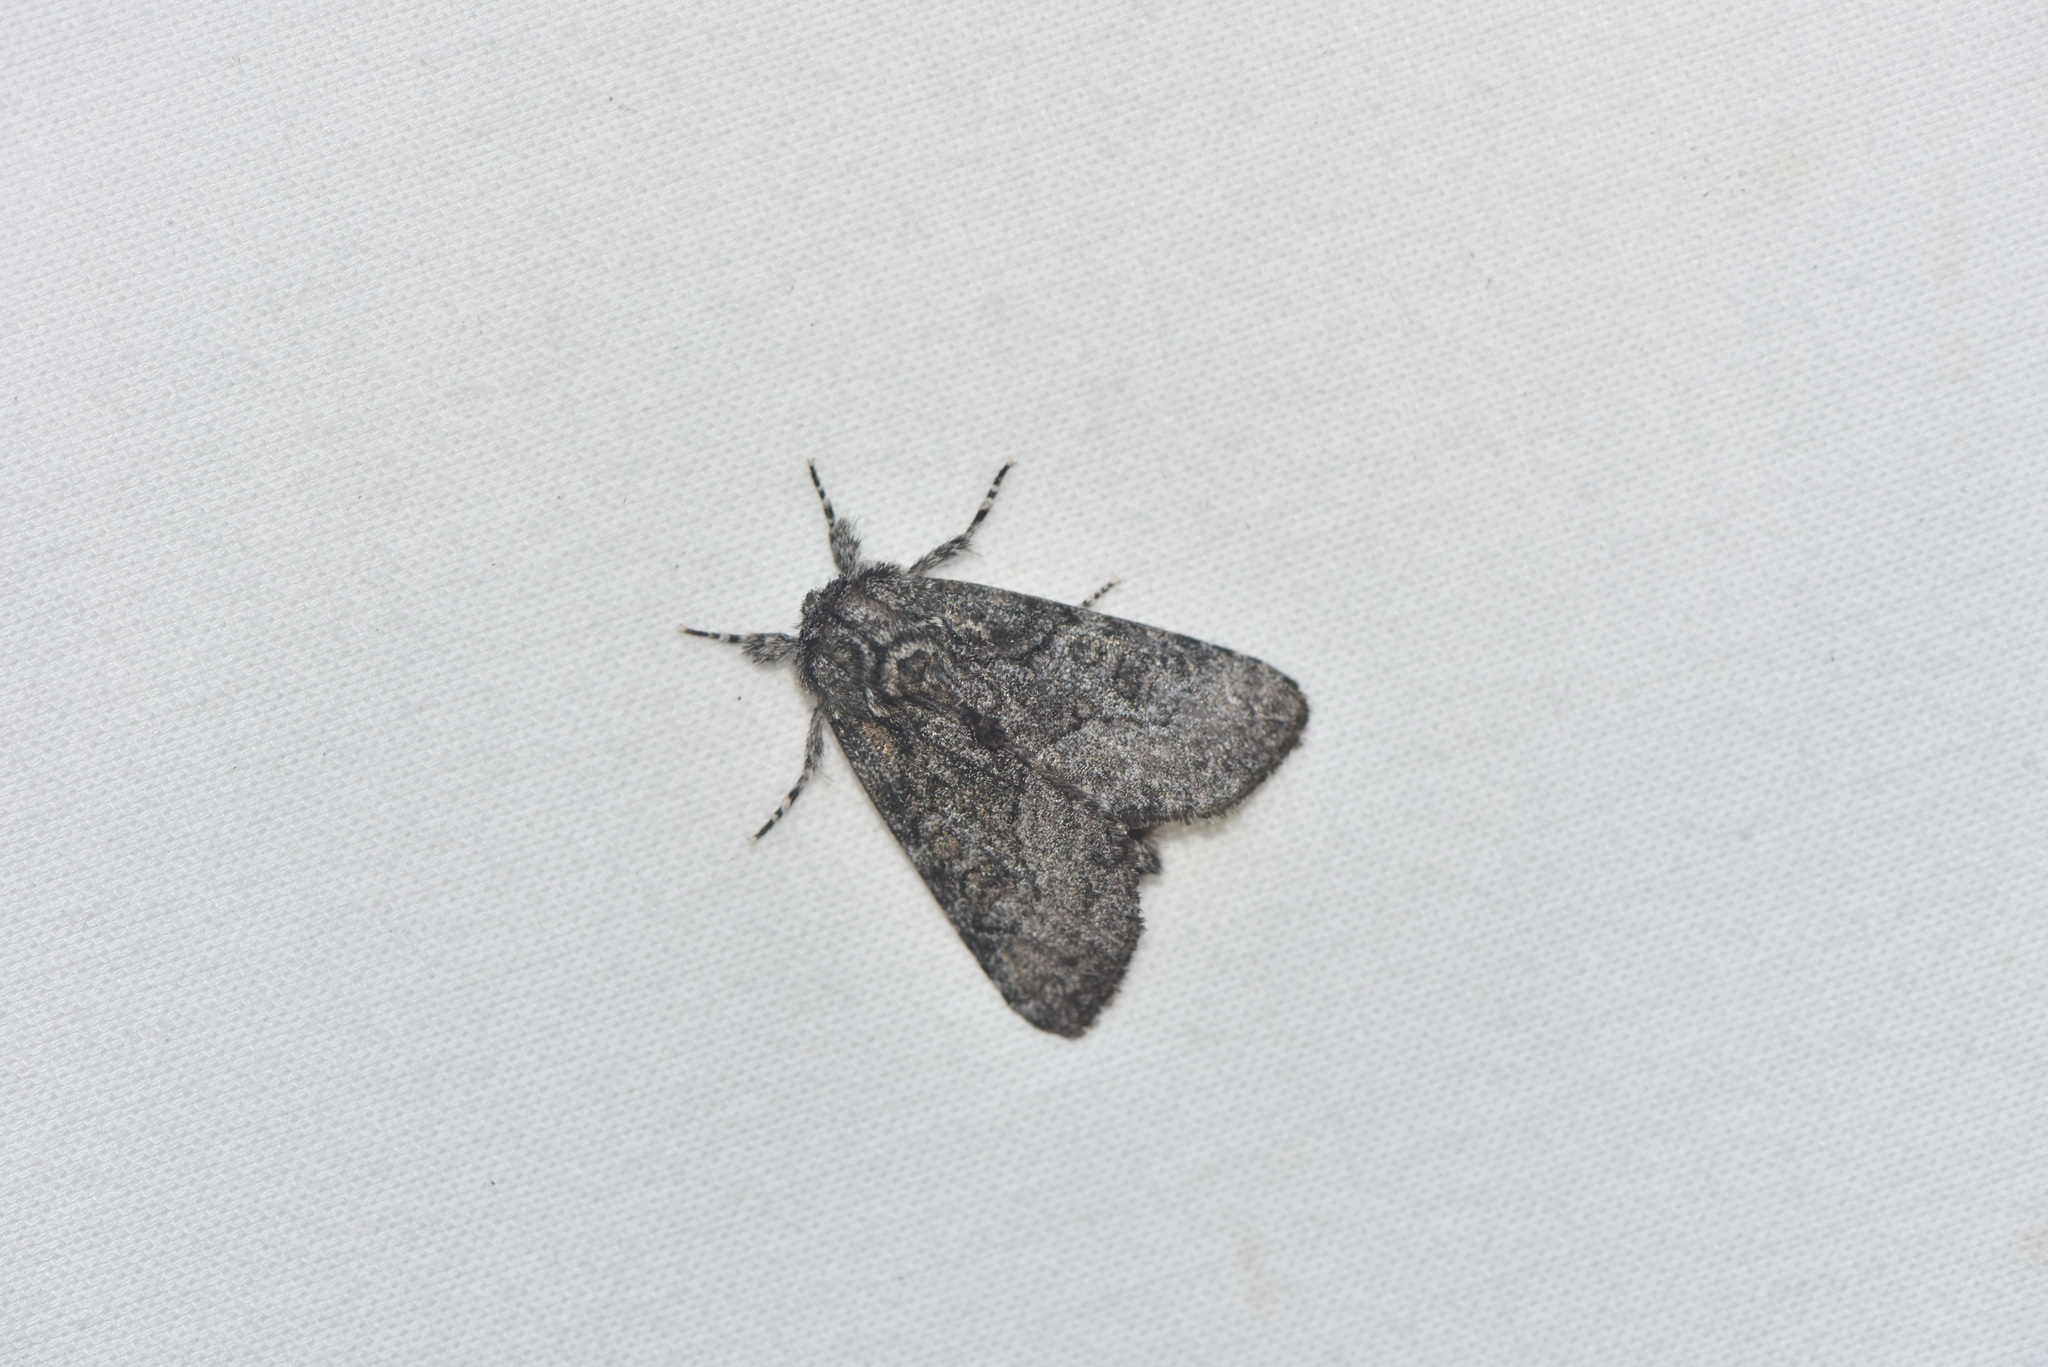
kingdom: Animalia
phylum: Arthropoda
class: Insecta
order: Lepidoptera
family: Noctuidae
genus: Raphia
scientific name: Raphia frater
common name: Brother
